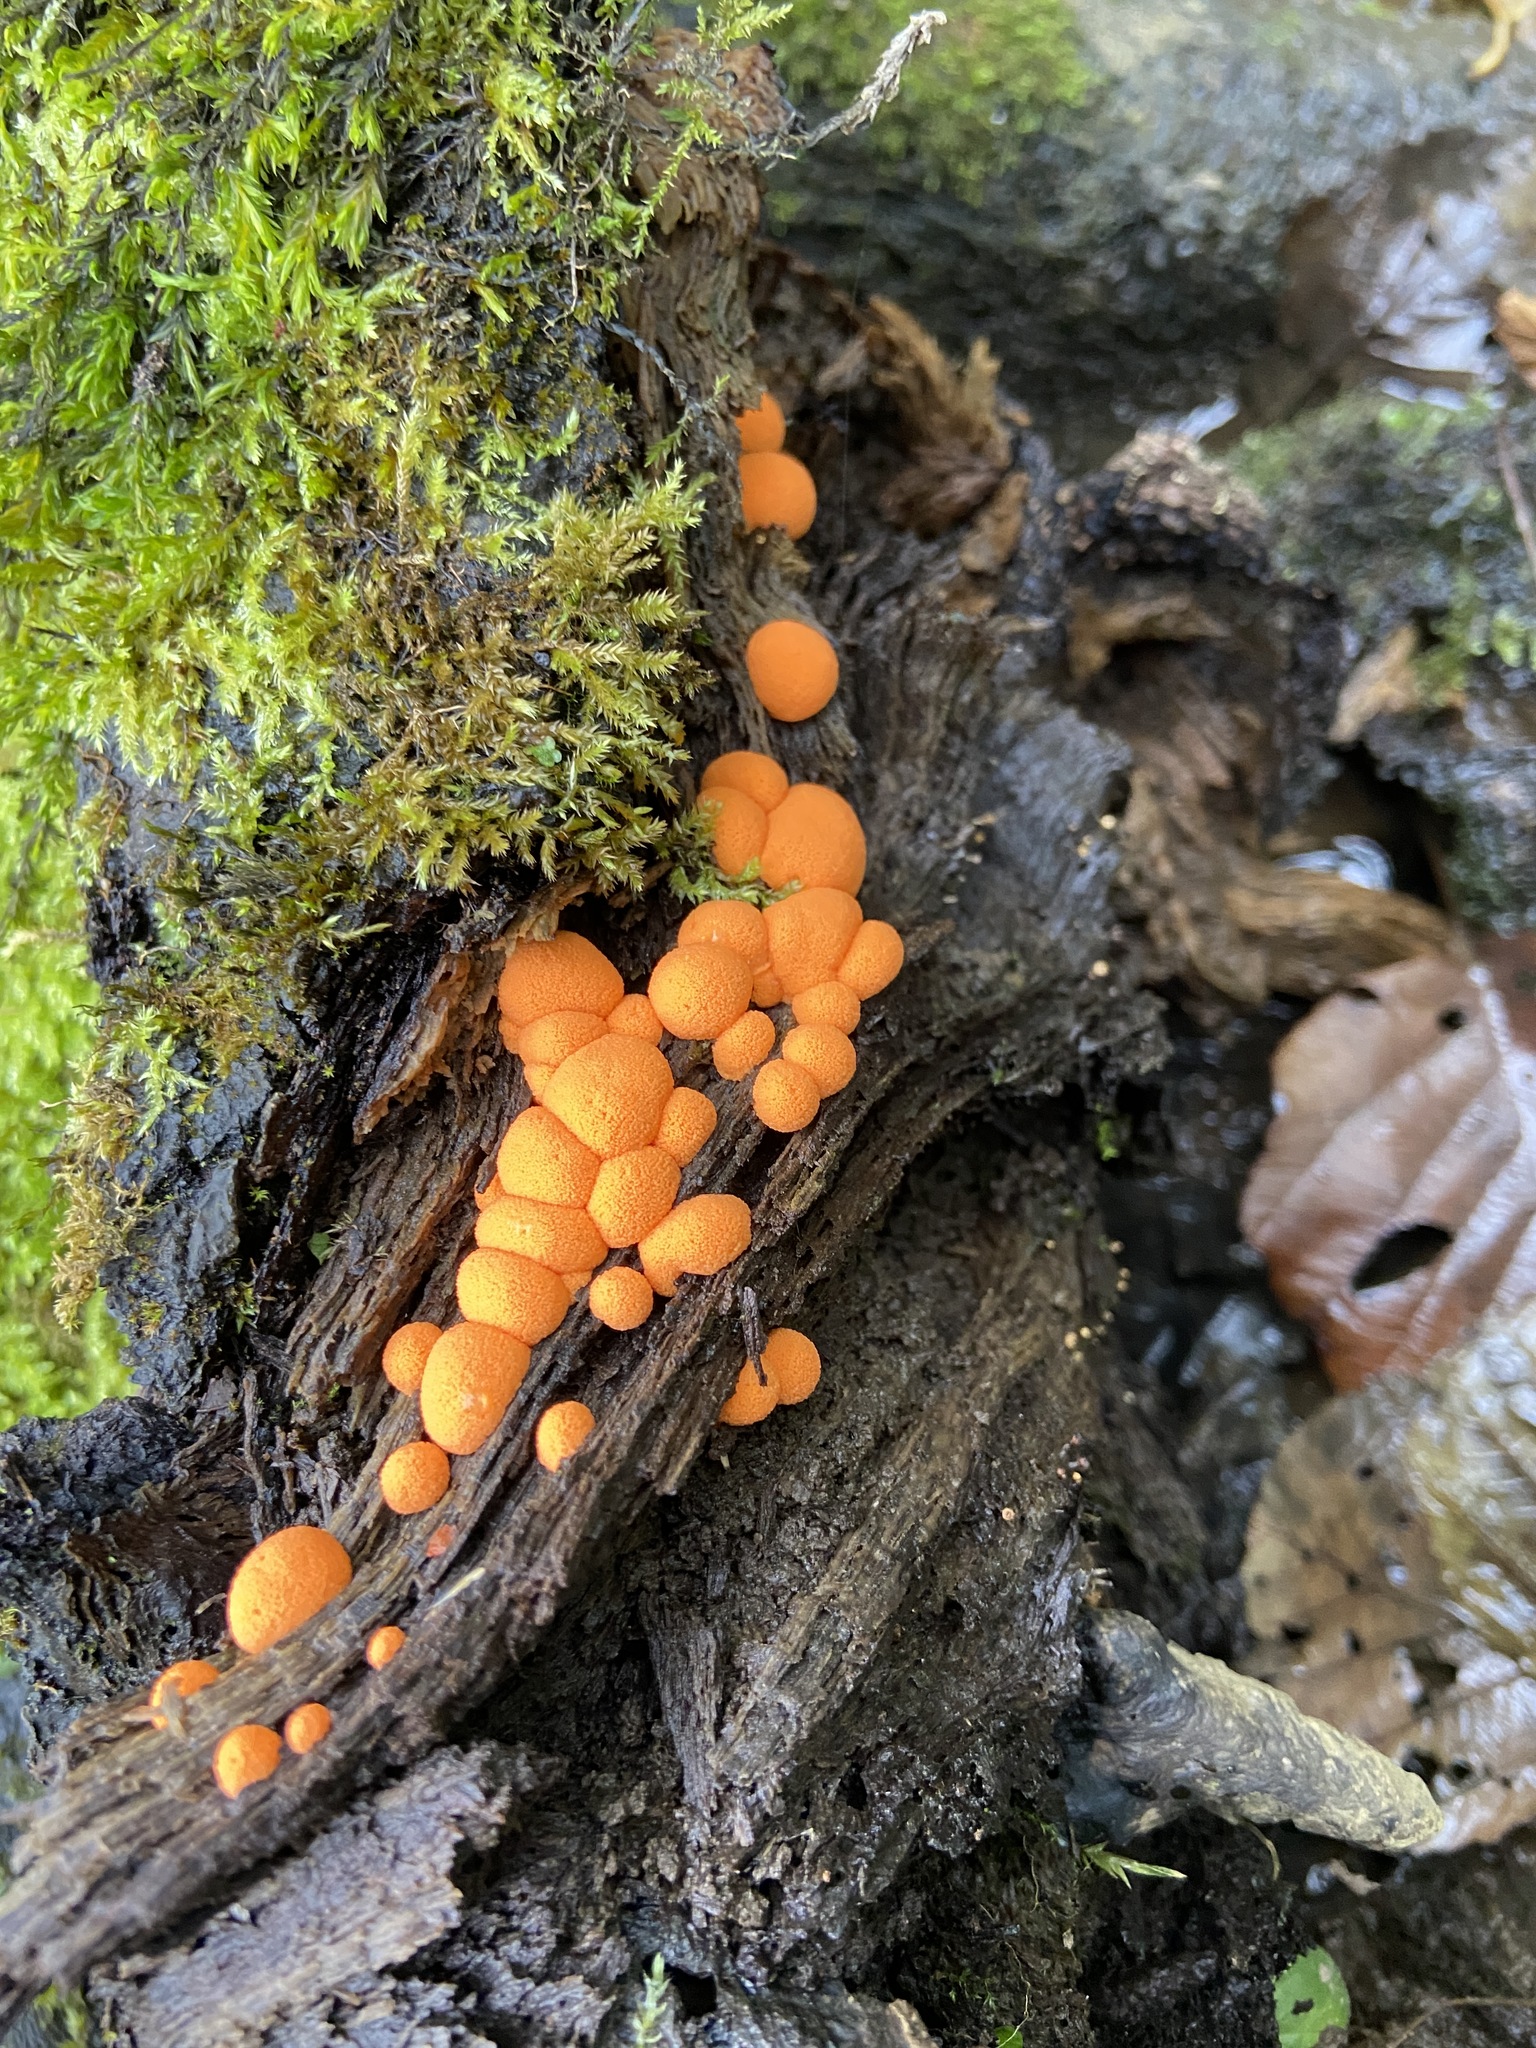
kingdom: Fungi
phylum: Basidiomycota
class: Dacrymycetes
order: Dacrymycetales
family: Dacrymycetaceae
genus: Dacrymyces
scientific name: Dacrymyces stillatus
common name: Common jelly spot
